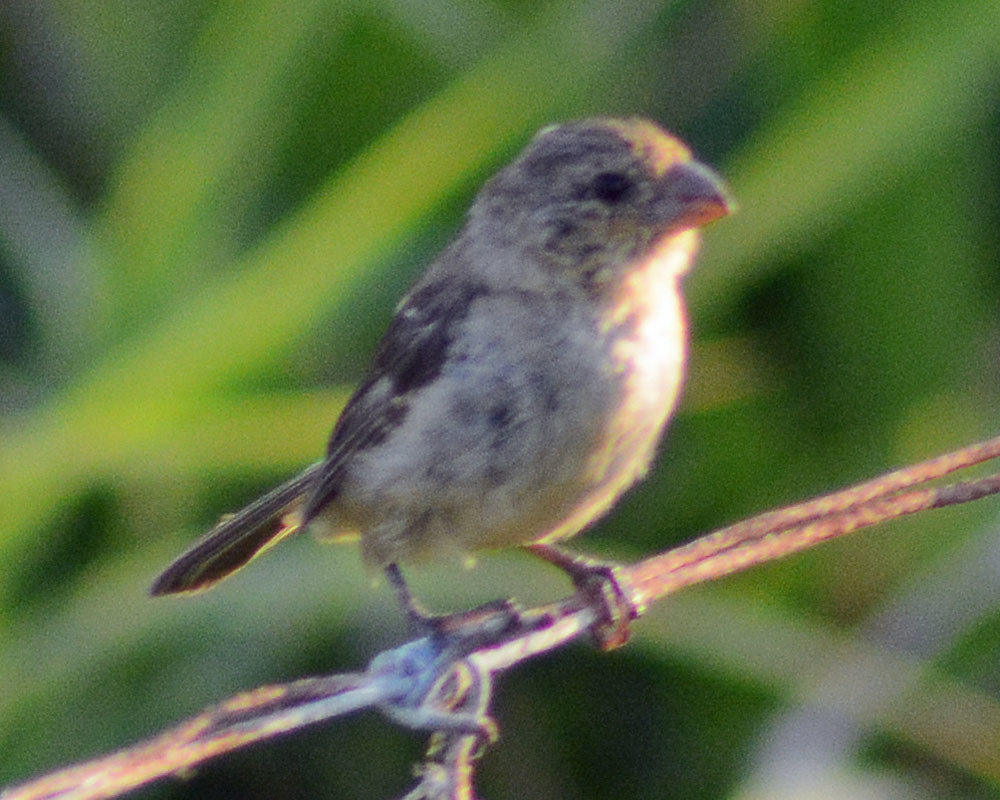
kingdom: Animalia
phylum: Chordata
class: Aves
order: Passeriformes
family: Thraupidae
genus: Sporophila
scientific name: Sporophila morelleti
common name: Morelet's seedeater
